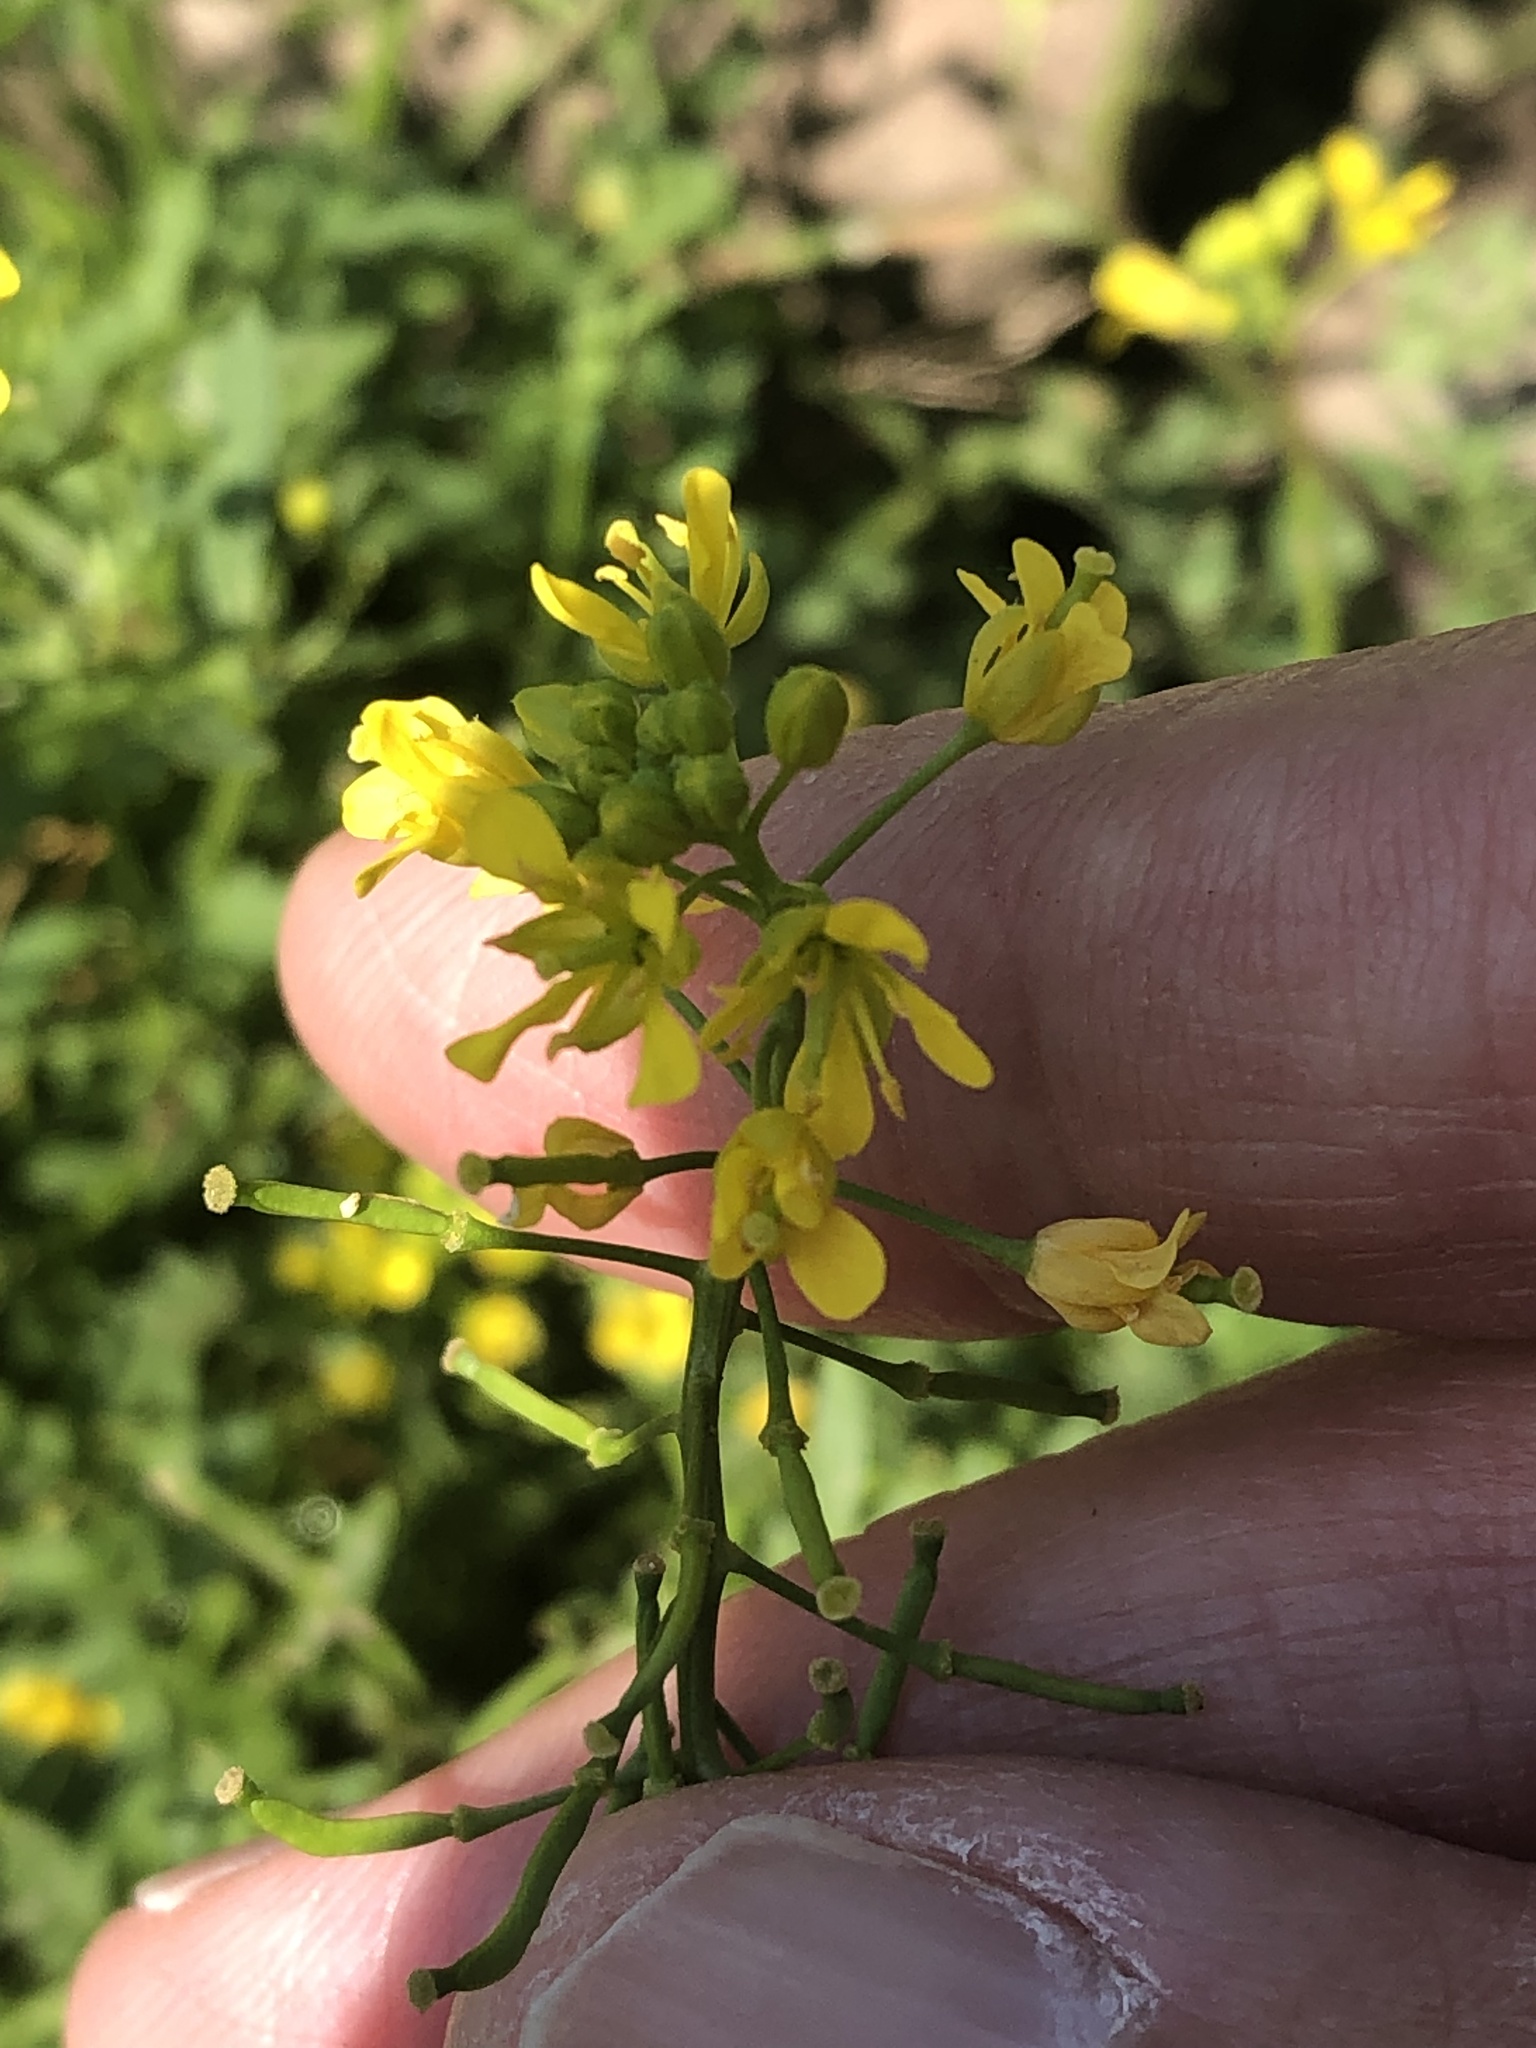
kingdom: Plantae
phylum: Tracheophyta
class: Magnoliopsida
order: Brassicales
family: Brassicaceae
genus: Rorippa
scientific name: Rorippa sylvestris
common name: Creeping yellowcress
